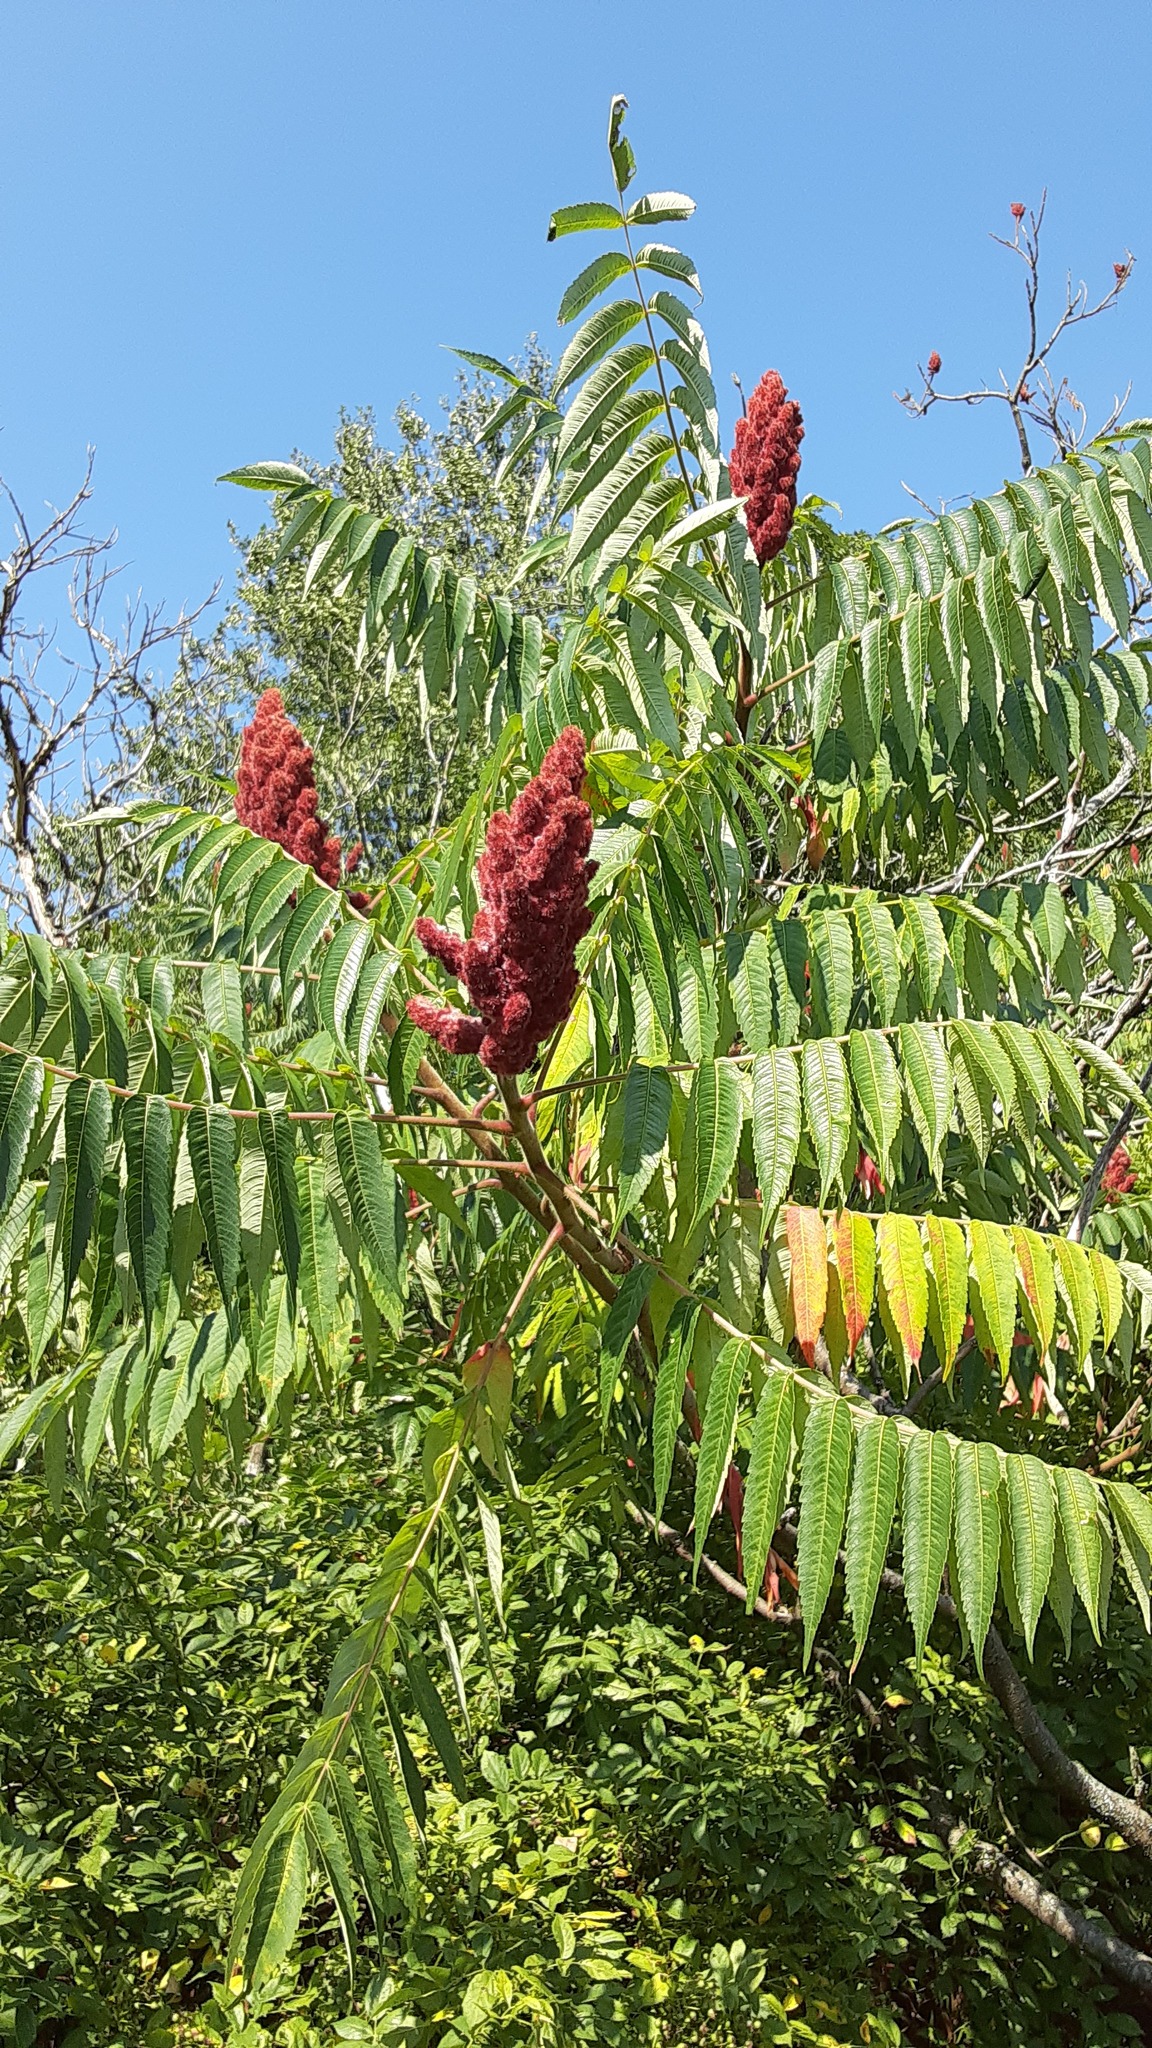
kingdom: Plantae
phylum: Tracheophyta
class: Magnoliopsida
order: Sapindales
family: Anacardiaceae
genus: Rhus
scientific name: Rhus typhina
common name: Staghorn sumac
